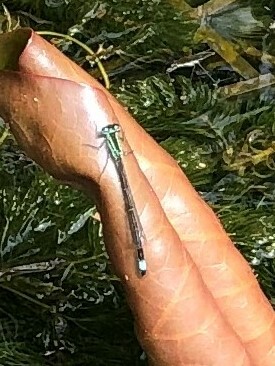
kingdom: Animalia
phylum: Arthropoda
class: Insecta
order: Odonata
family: Coenagrionidae
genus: Ischnura
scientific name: Ischnura elegans
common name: Blue-tailed damselfly
